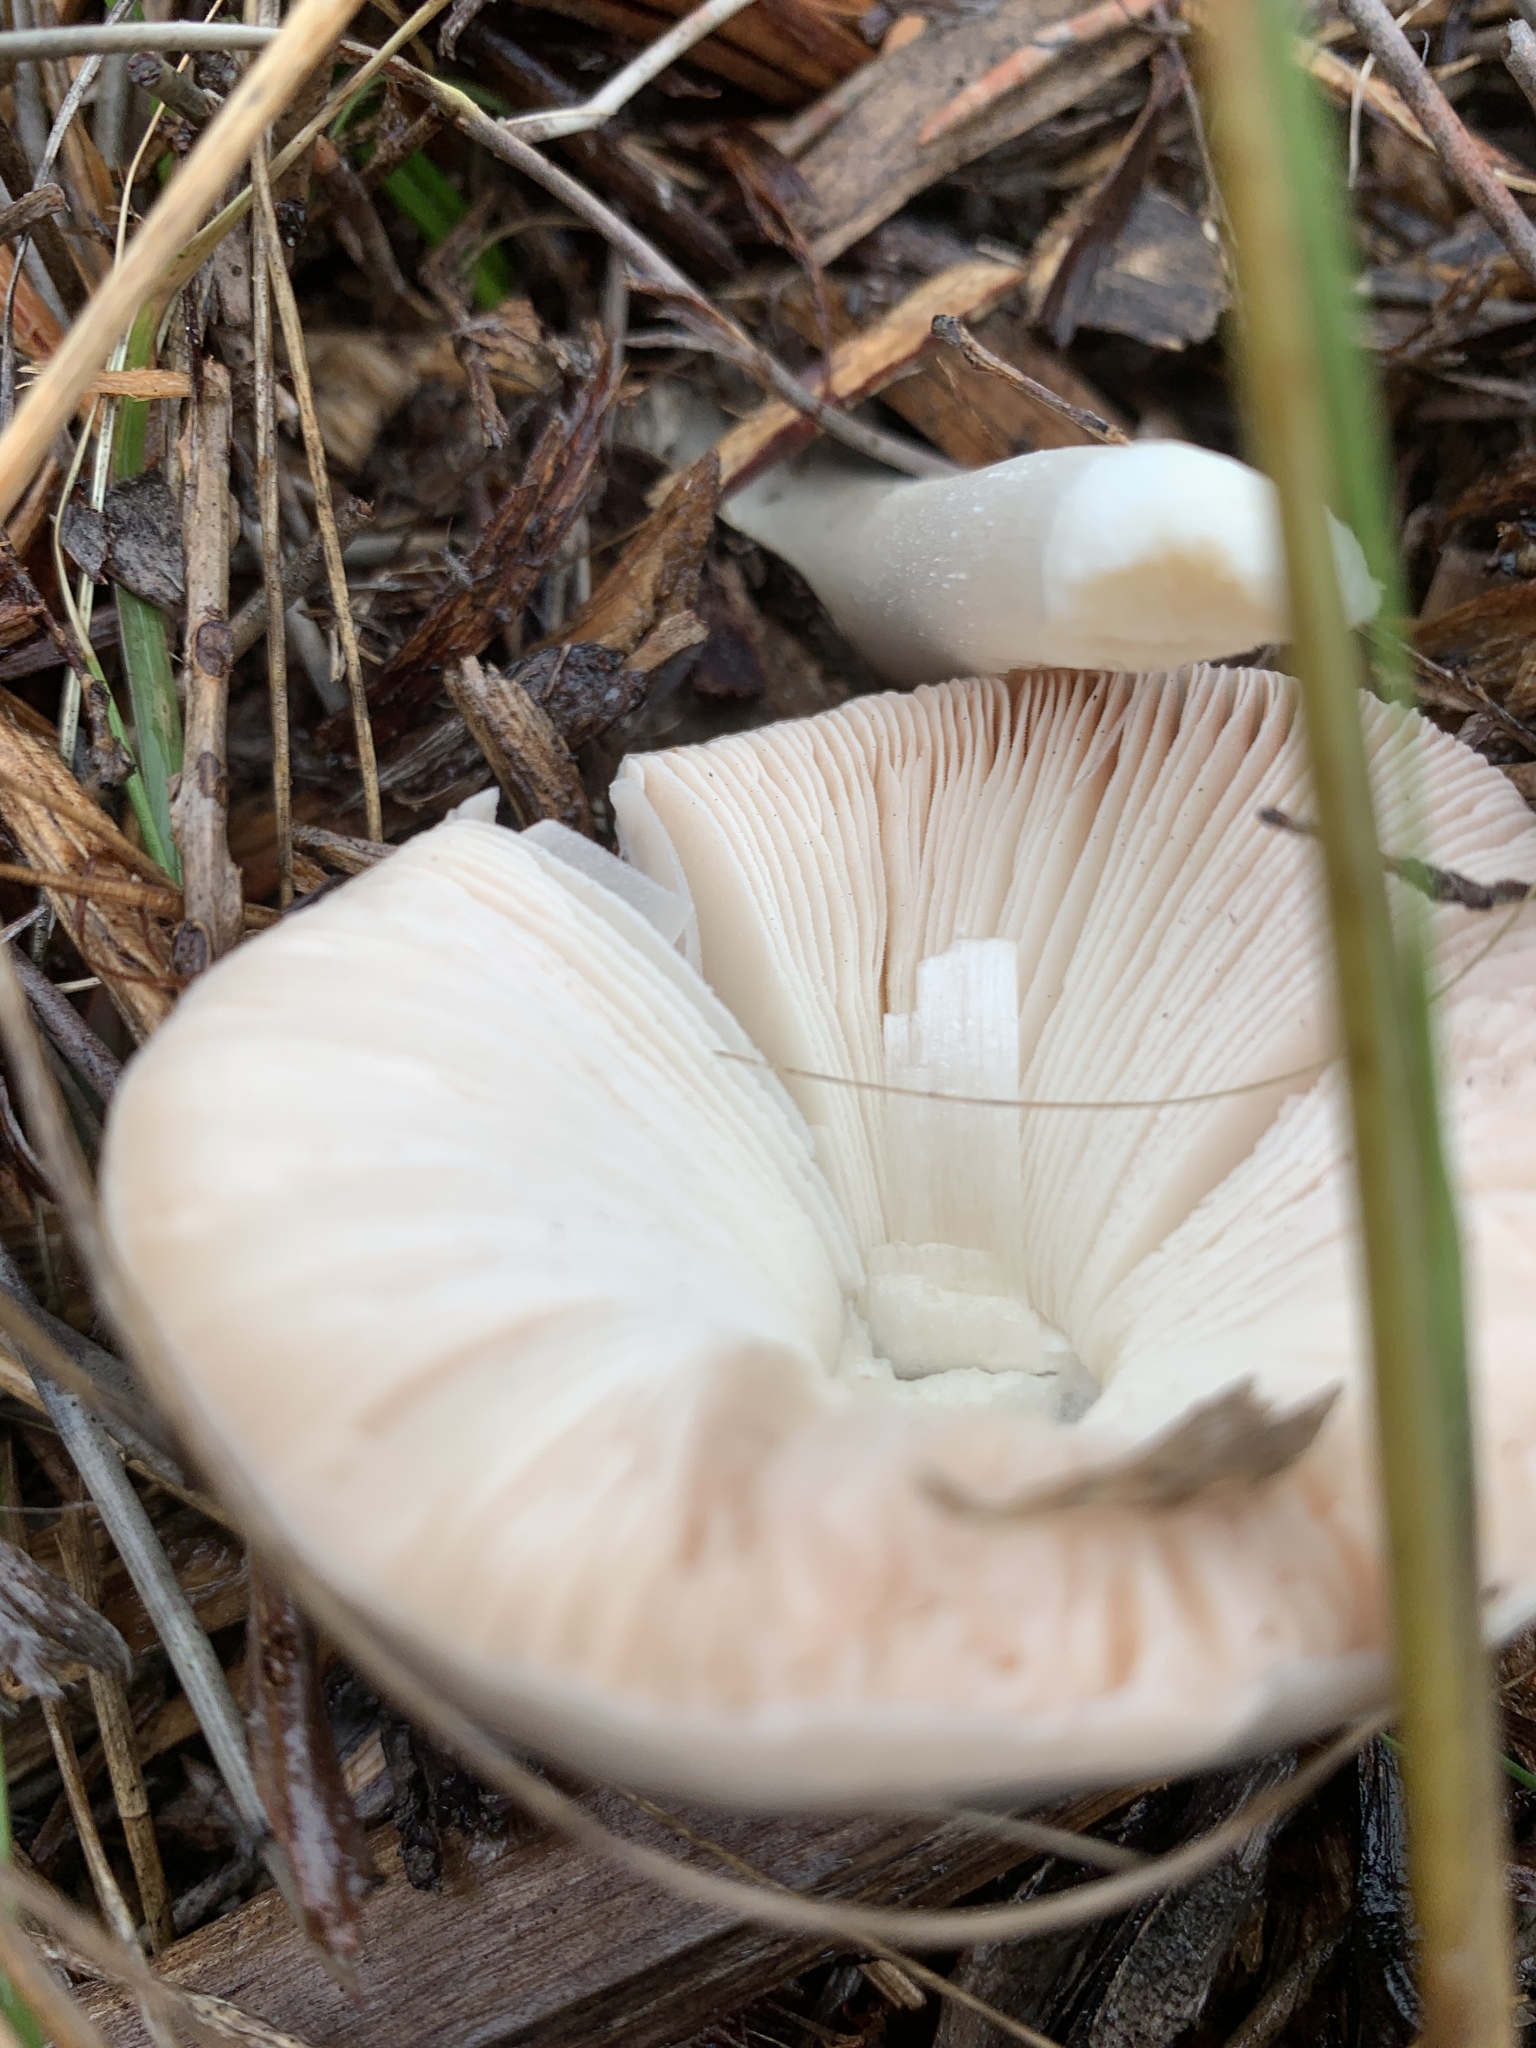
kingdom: Fungi
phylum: Basidiomycota
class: Agaricomycetes
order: Agaricales
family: Pluteaceae
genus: Volvopluteus
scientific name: Volvopluteus gloiocephalus
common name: Stubble rosegill
